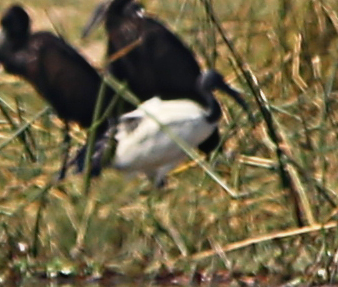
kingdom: Animalia
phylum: Chordata
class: Aves
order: Pelecaniformes
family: Threskiornithidae
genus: Threskiornis
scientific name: Threskiornis aethiopicus
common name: Sacred ibis
